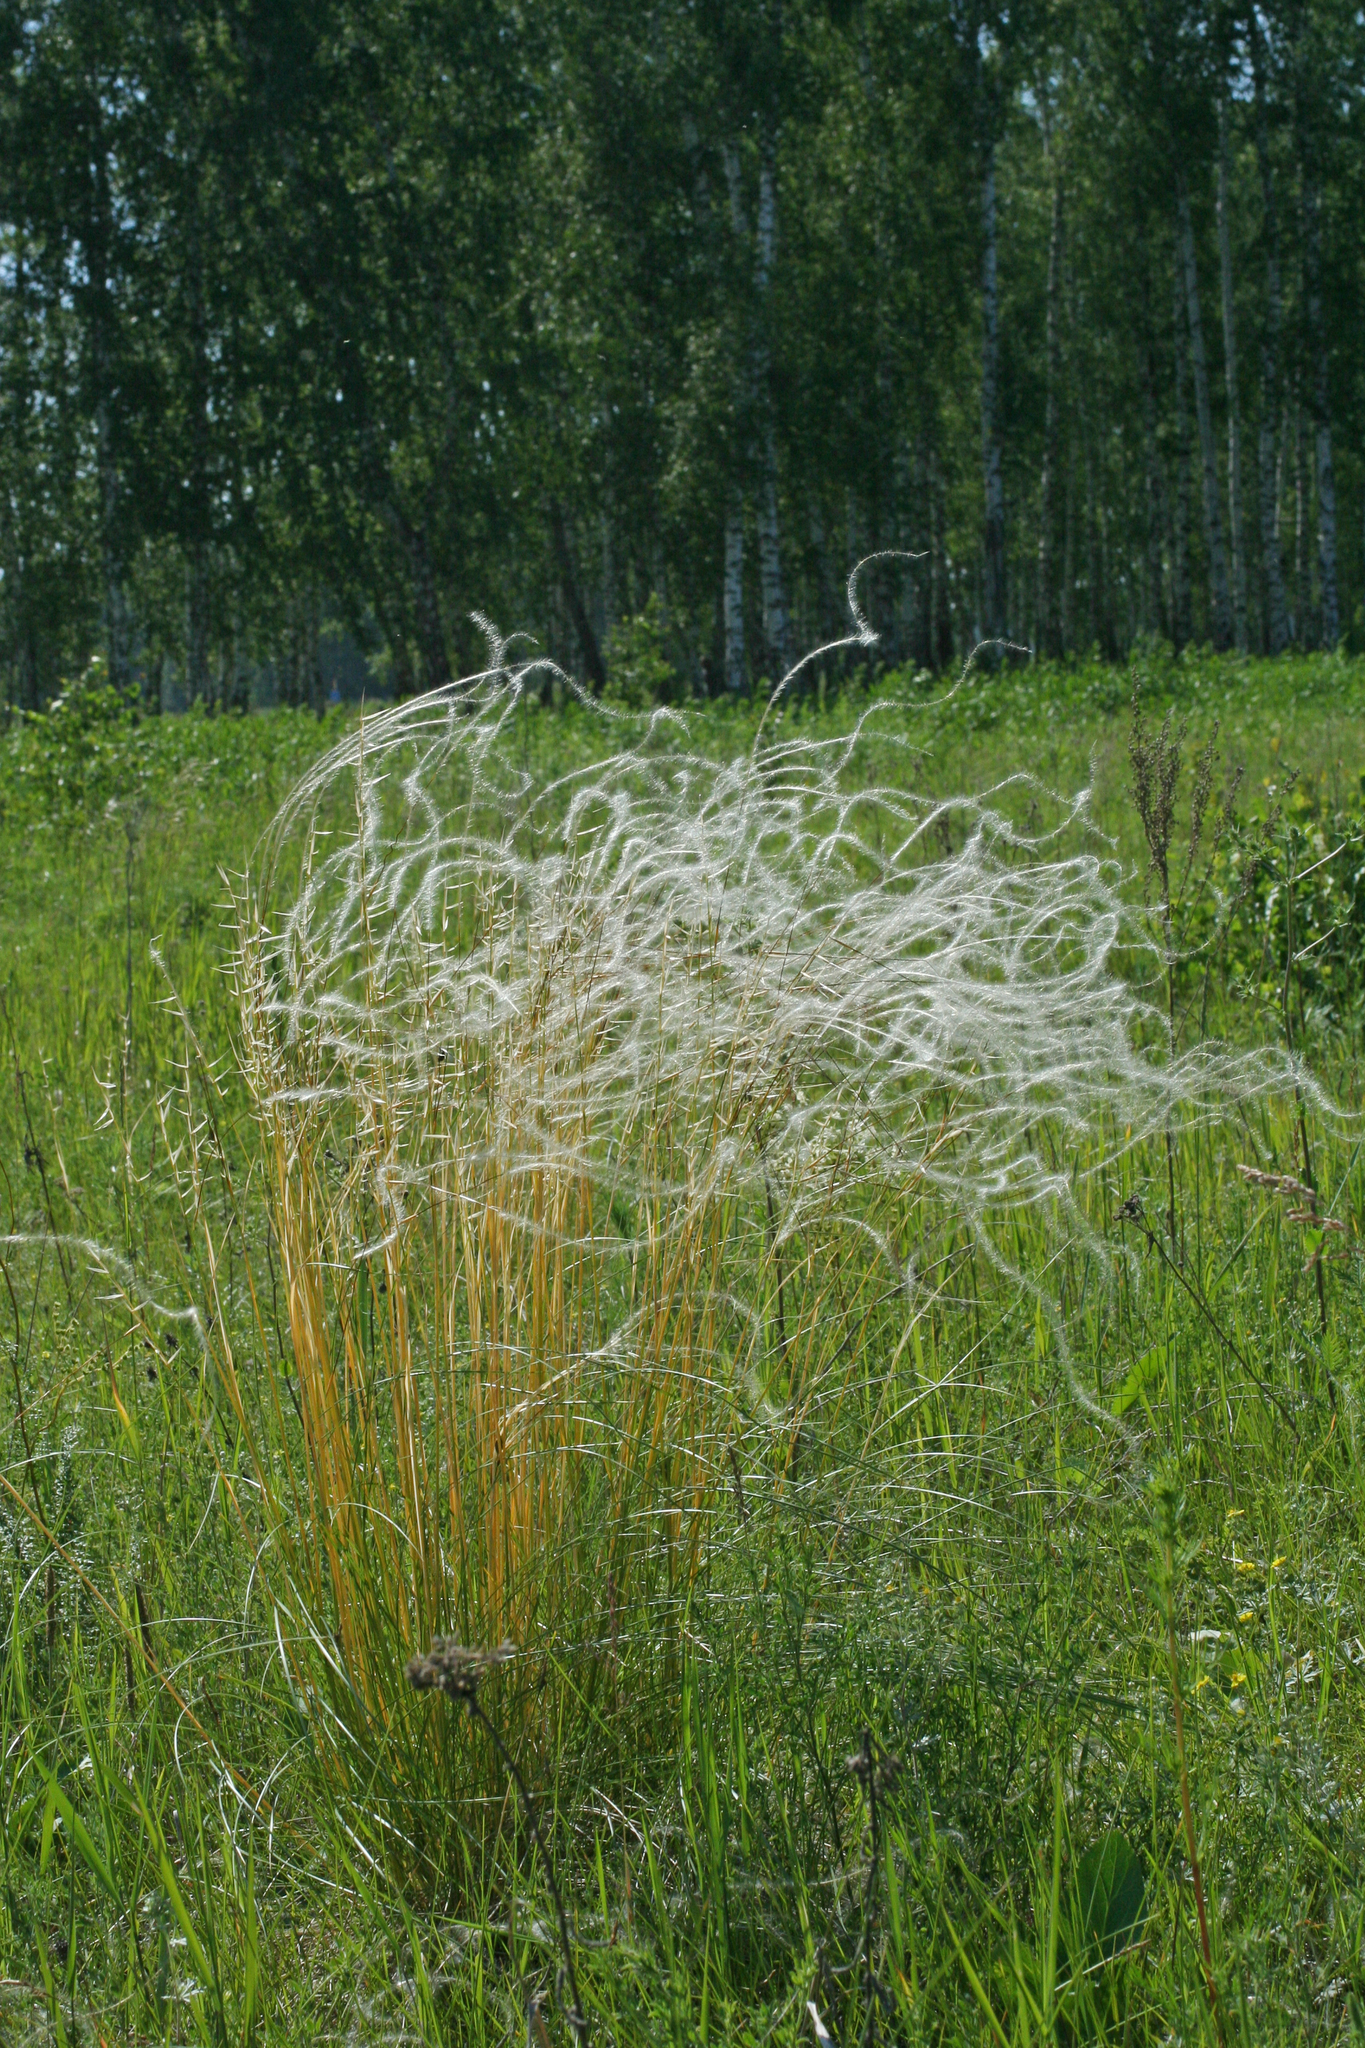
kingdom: Plantae
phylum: Tracheophyta
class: Liliopsida
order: Poales
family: Poaceae
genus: Stipa
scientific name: Stipa pennata
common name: European feather grass
